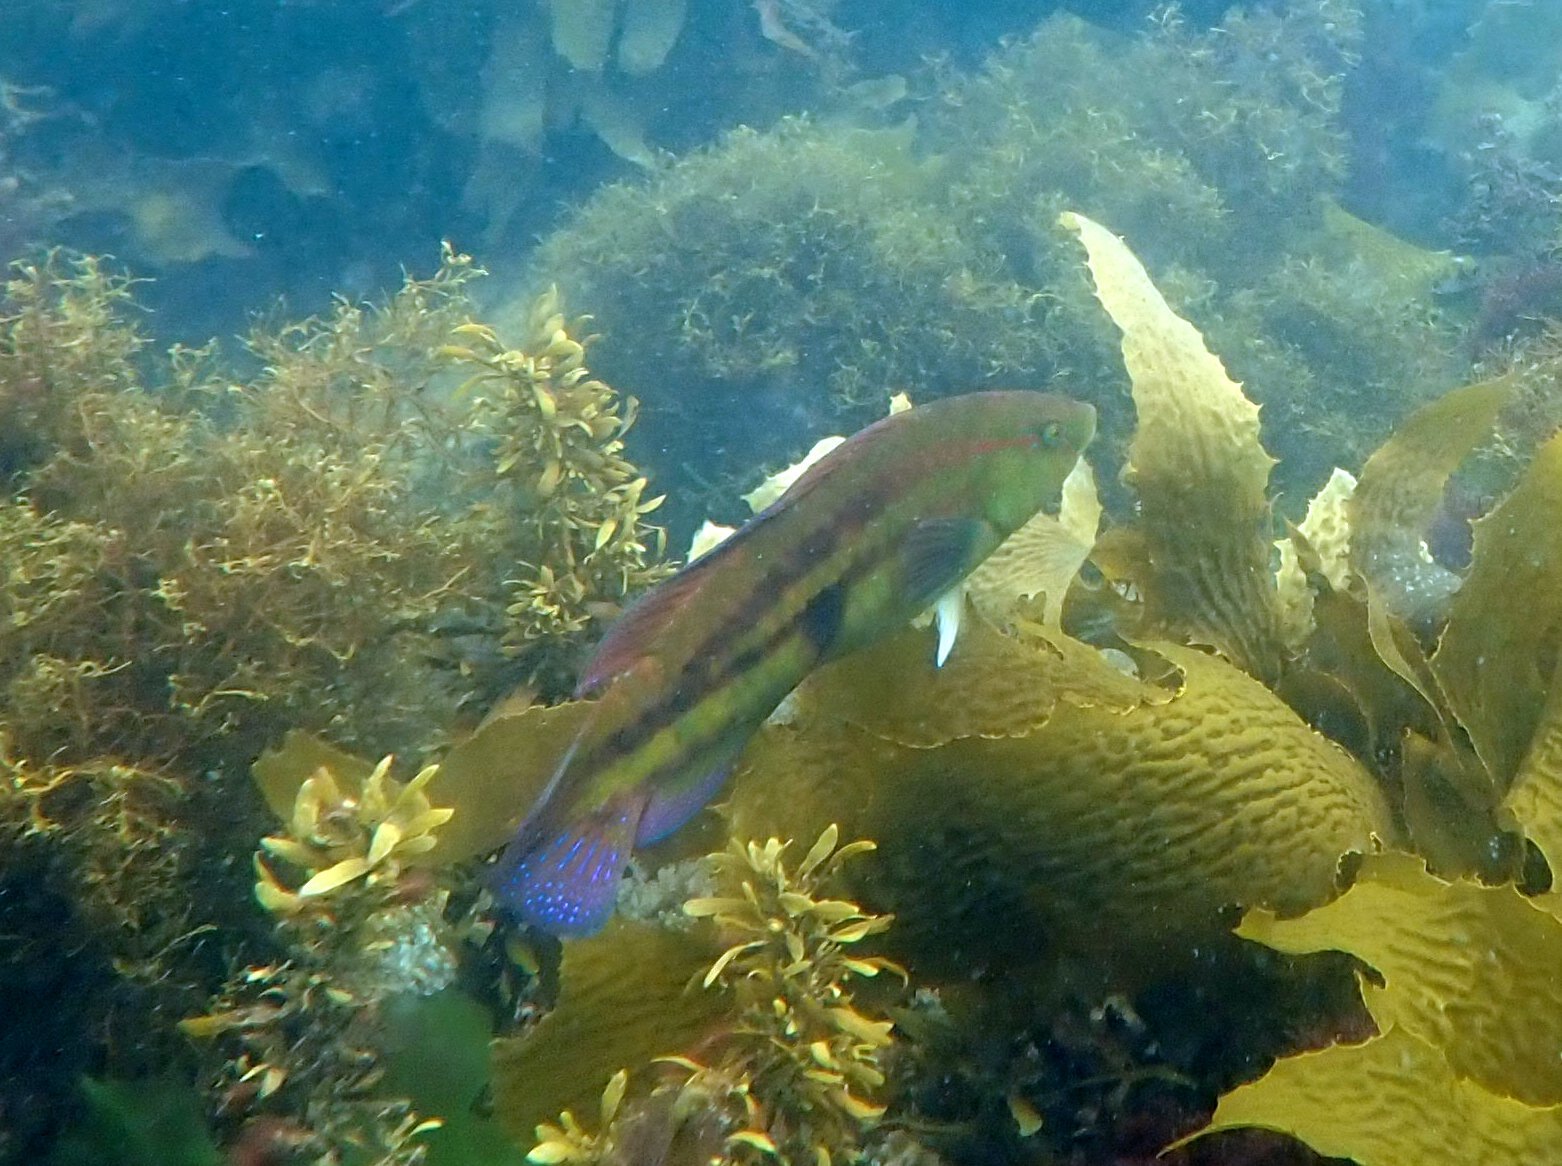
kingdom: Animalia
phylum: Chordata
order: Perciformes
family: Labridae
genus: Pictilabrus
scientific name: Pictilabrus laticlavius
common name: Patrician wrasse
